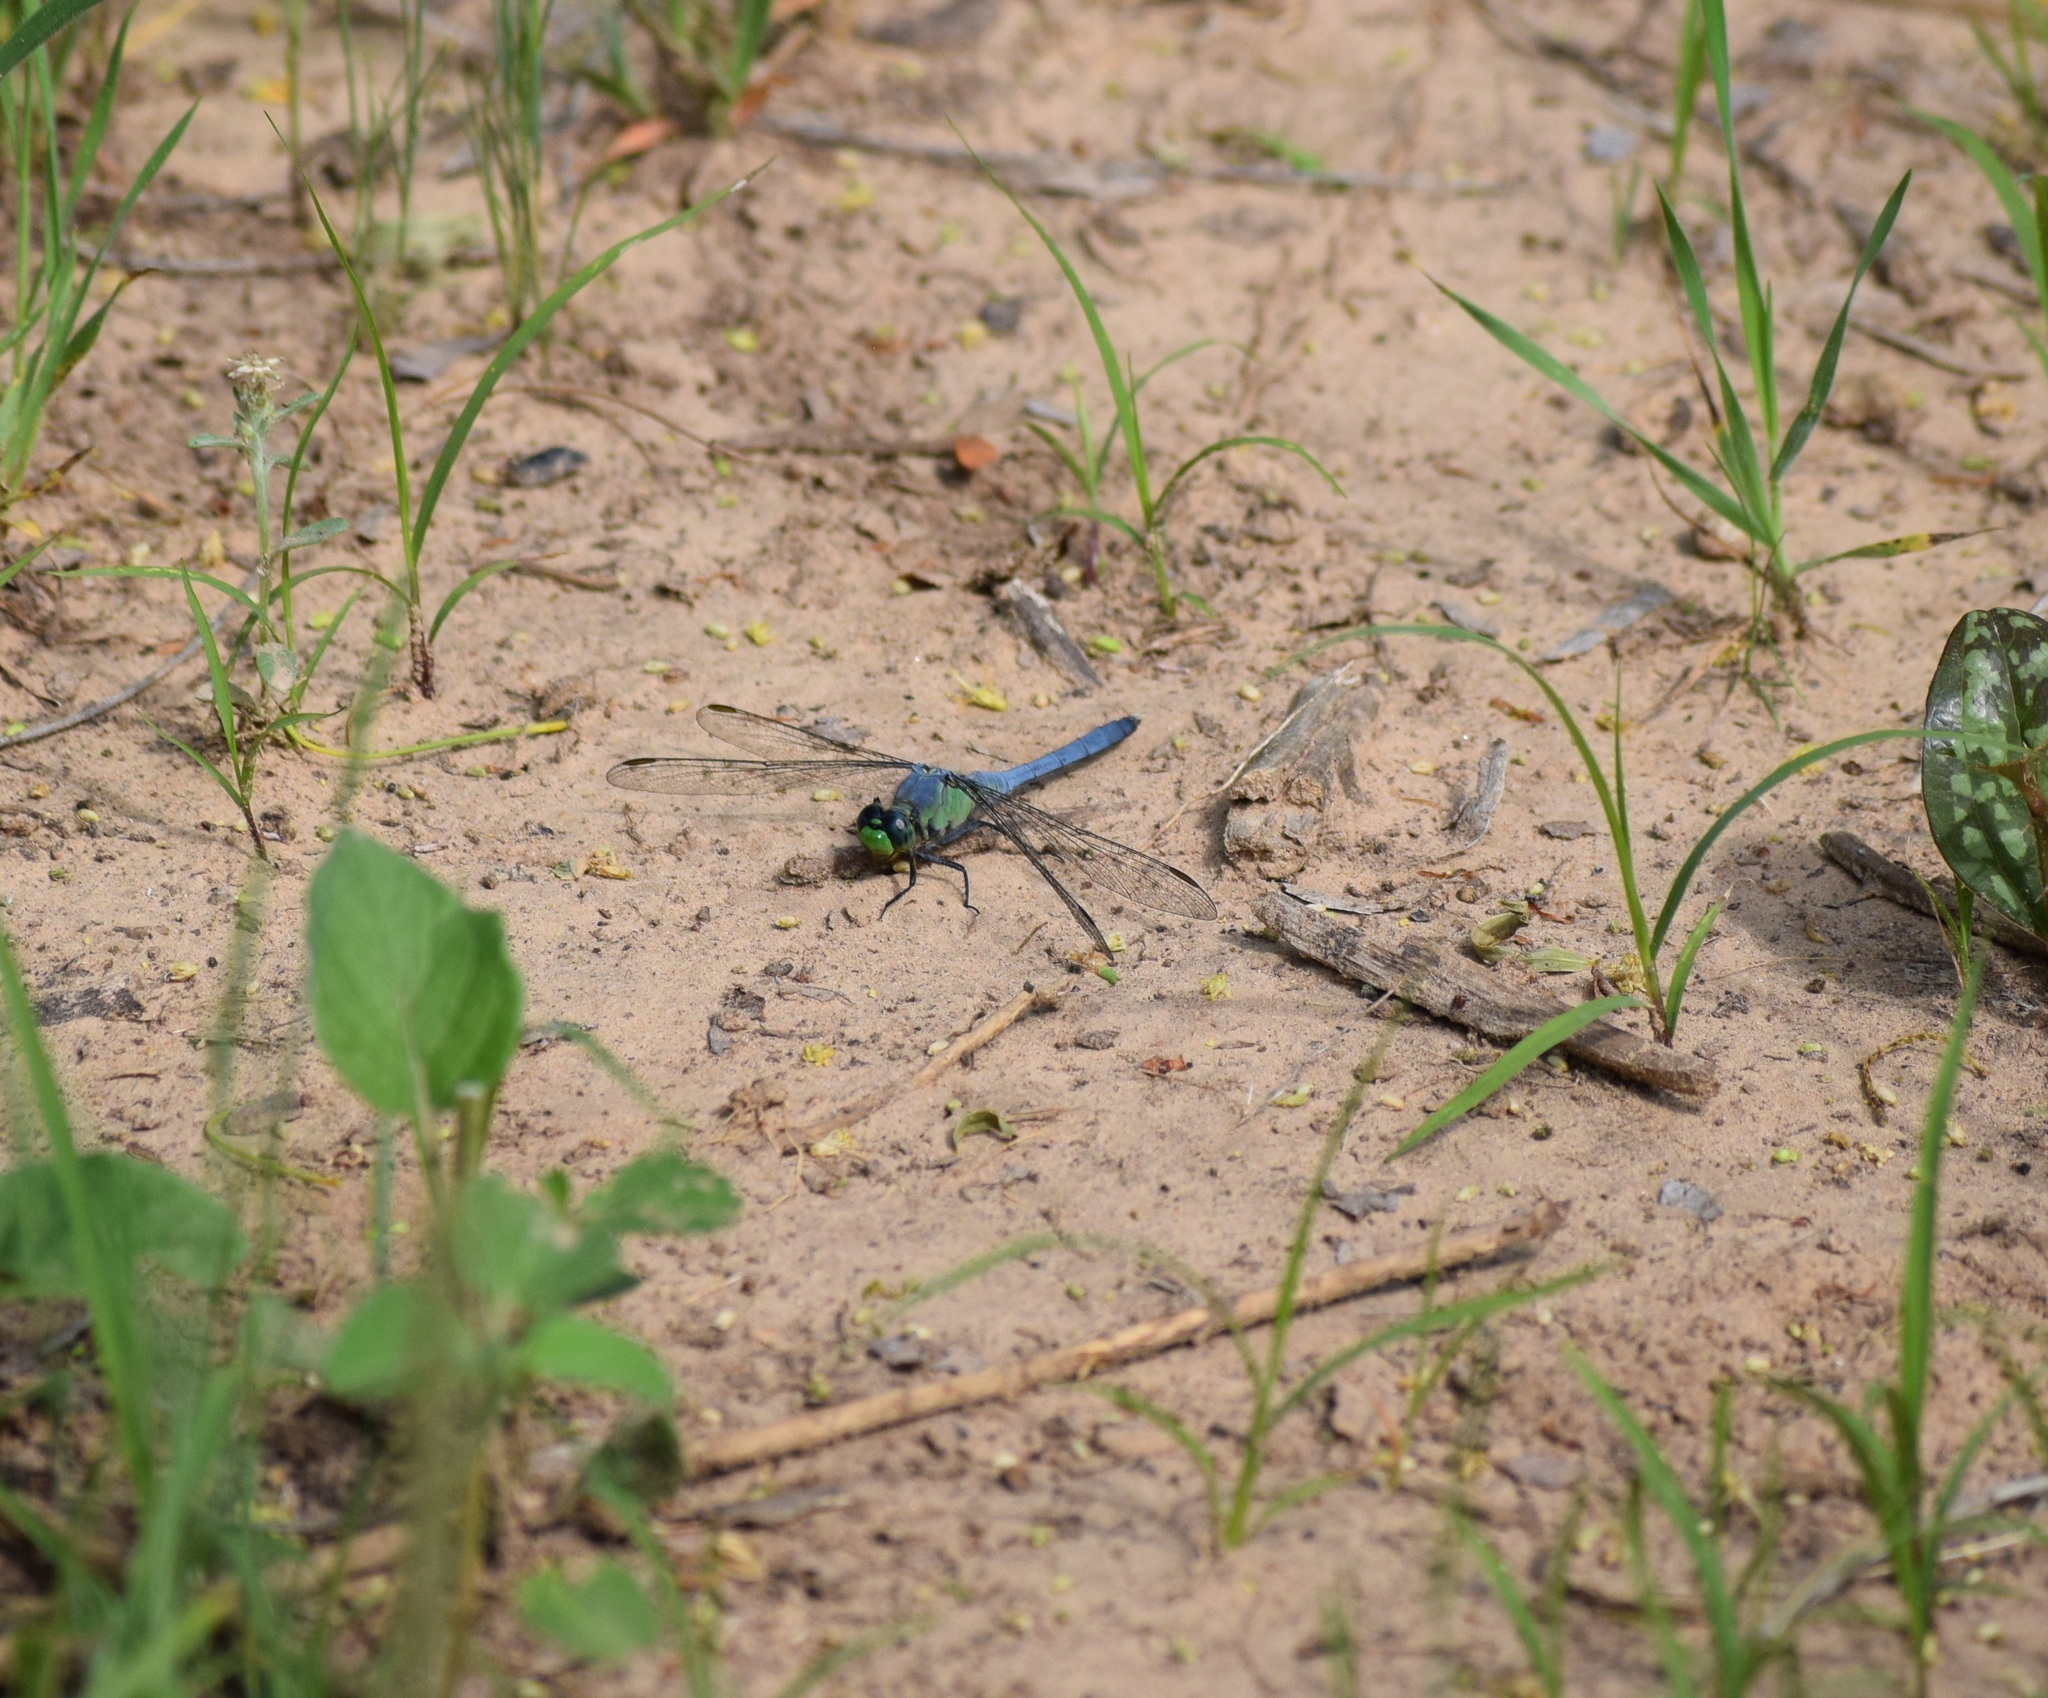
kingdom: Animalia
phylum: Arthropoda
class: Insecta
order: Odonata
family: Libellulidae
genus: Erythemis
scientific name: Erythemis simplicicollis
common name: Eastern pondhawk
